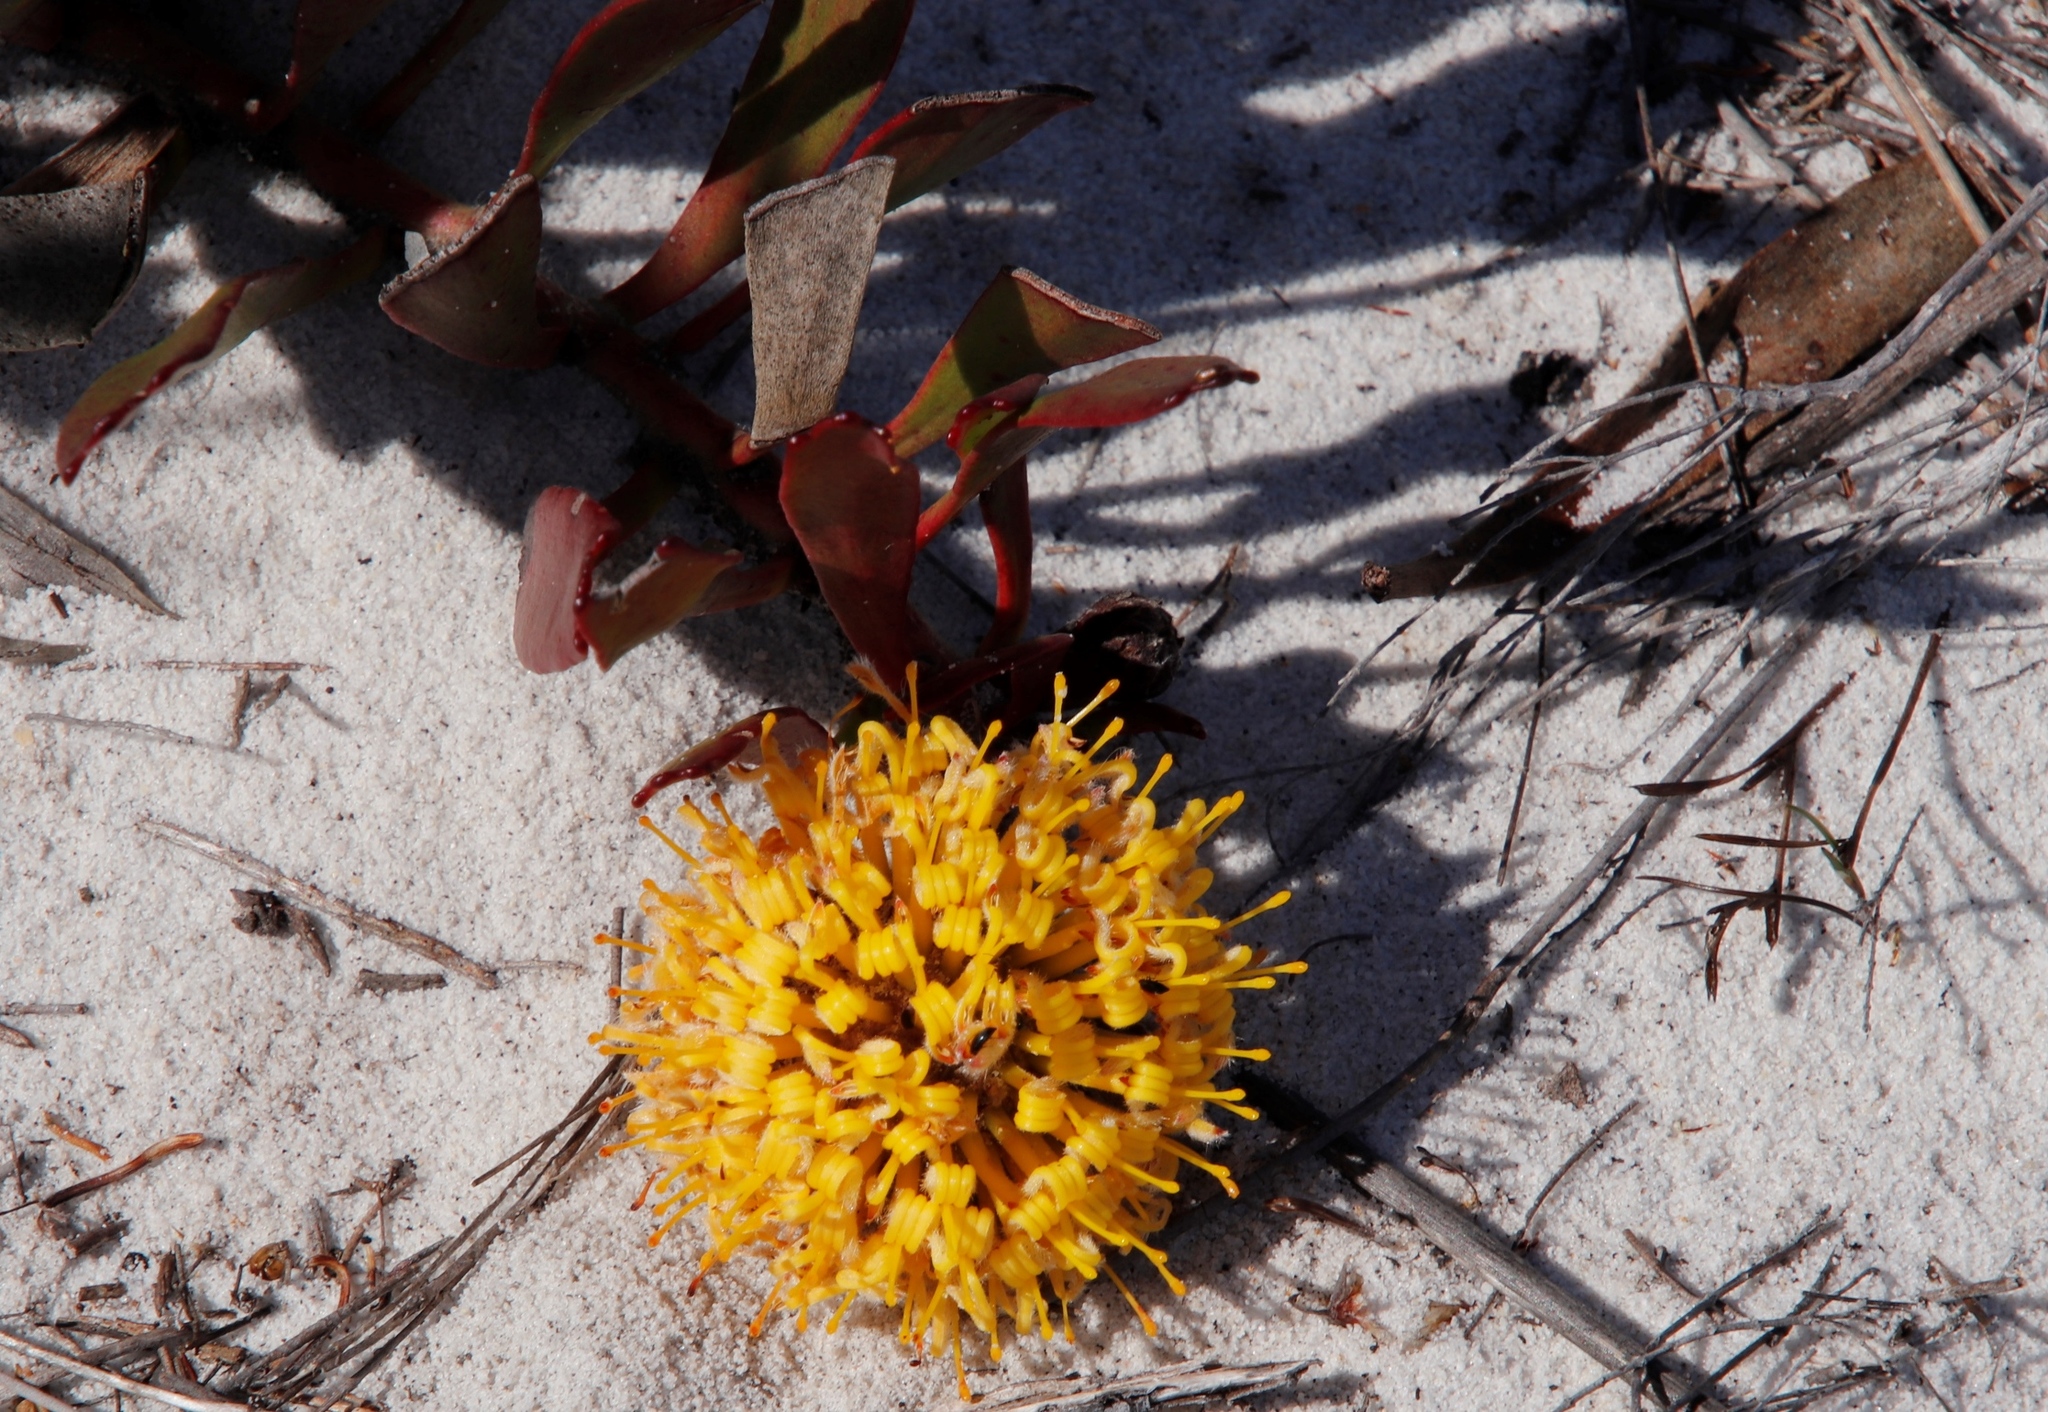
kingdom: Plantae
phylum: Tracheophyta
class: Magnoliopsida
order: Proteales
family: Proteaceae
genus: Leucospermum
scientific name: Leucospermum hypophyllocarpodendron
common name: Snakestem pincushion
